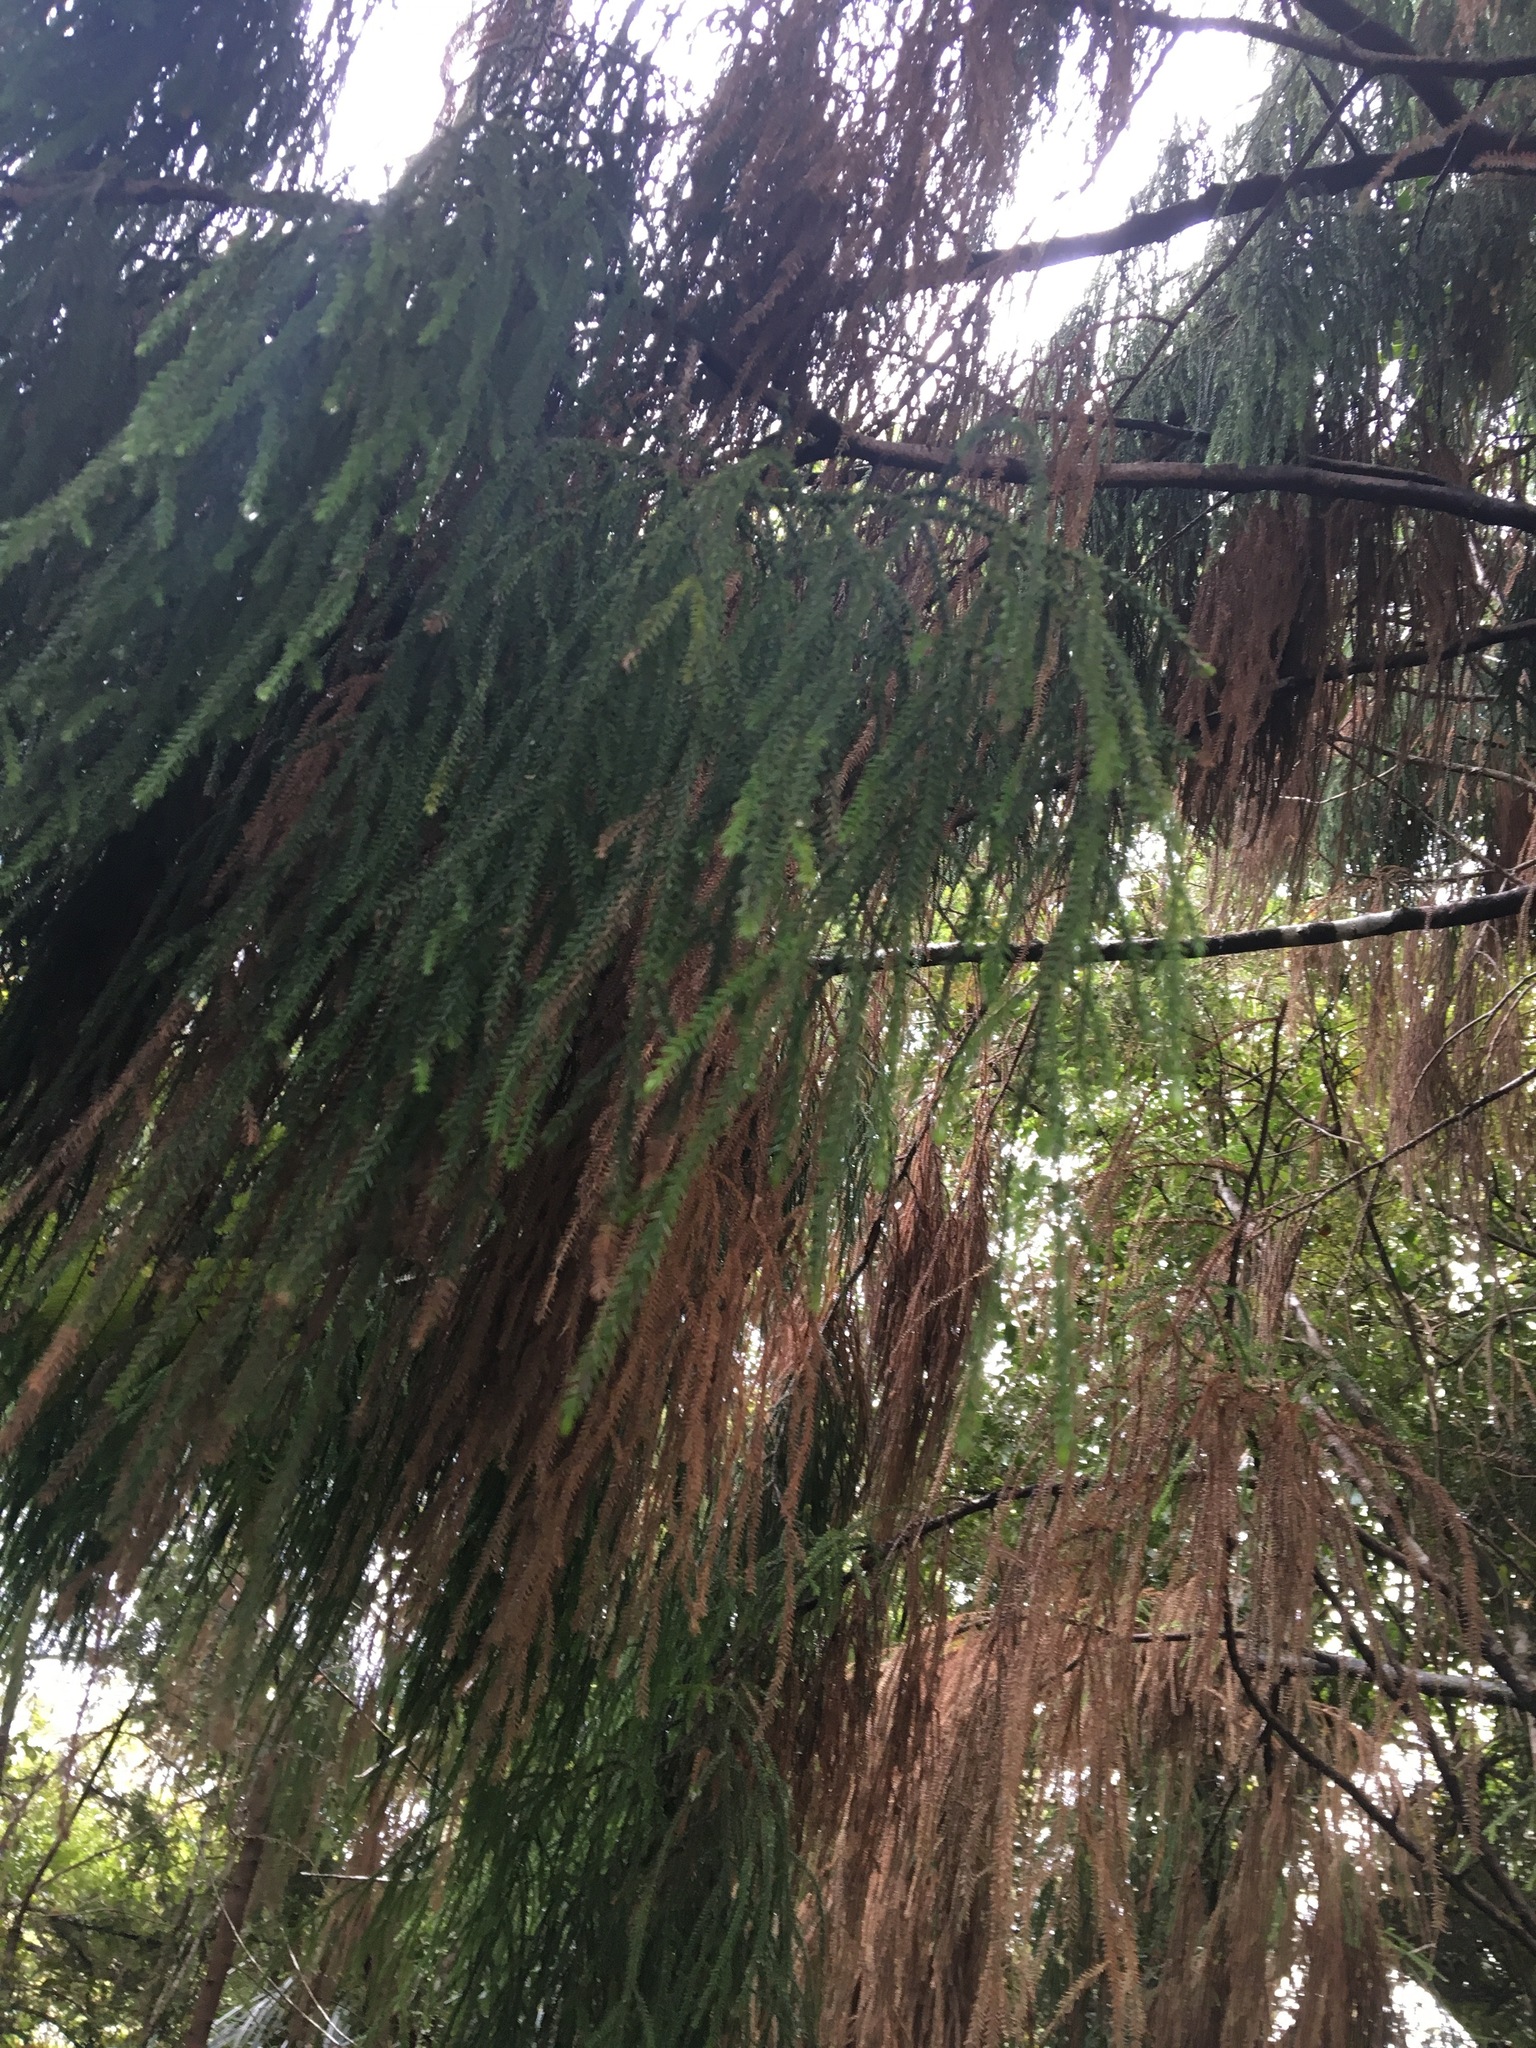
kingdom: Plantae
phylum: Tracheophyta
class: Pinopsida
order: Pinales
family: Podocarpaceae
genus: Dacrydium
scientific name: Dacrydium cupressinum
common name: Red pine
